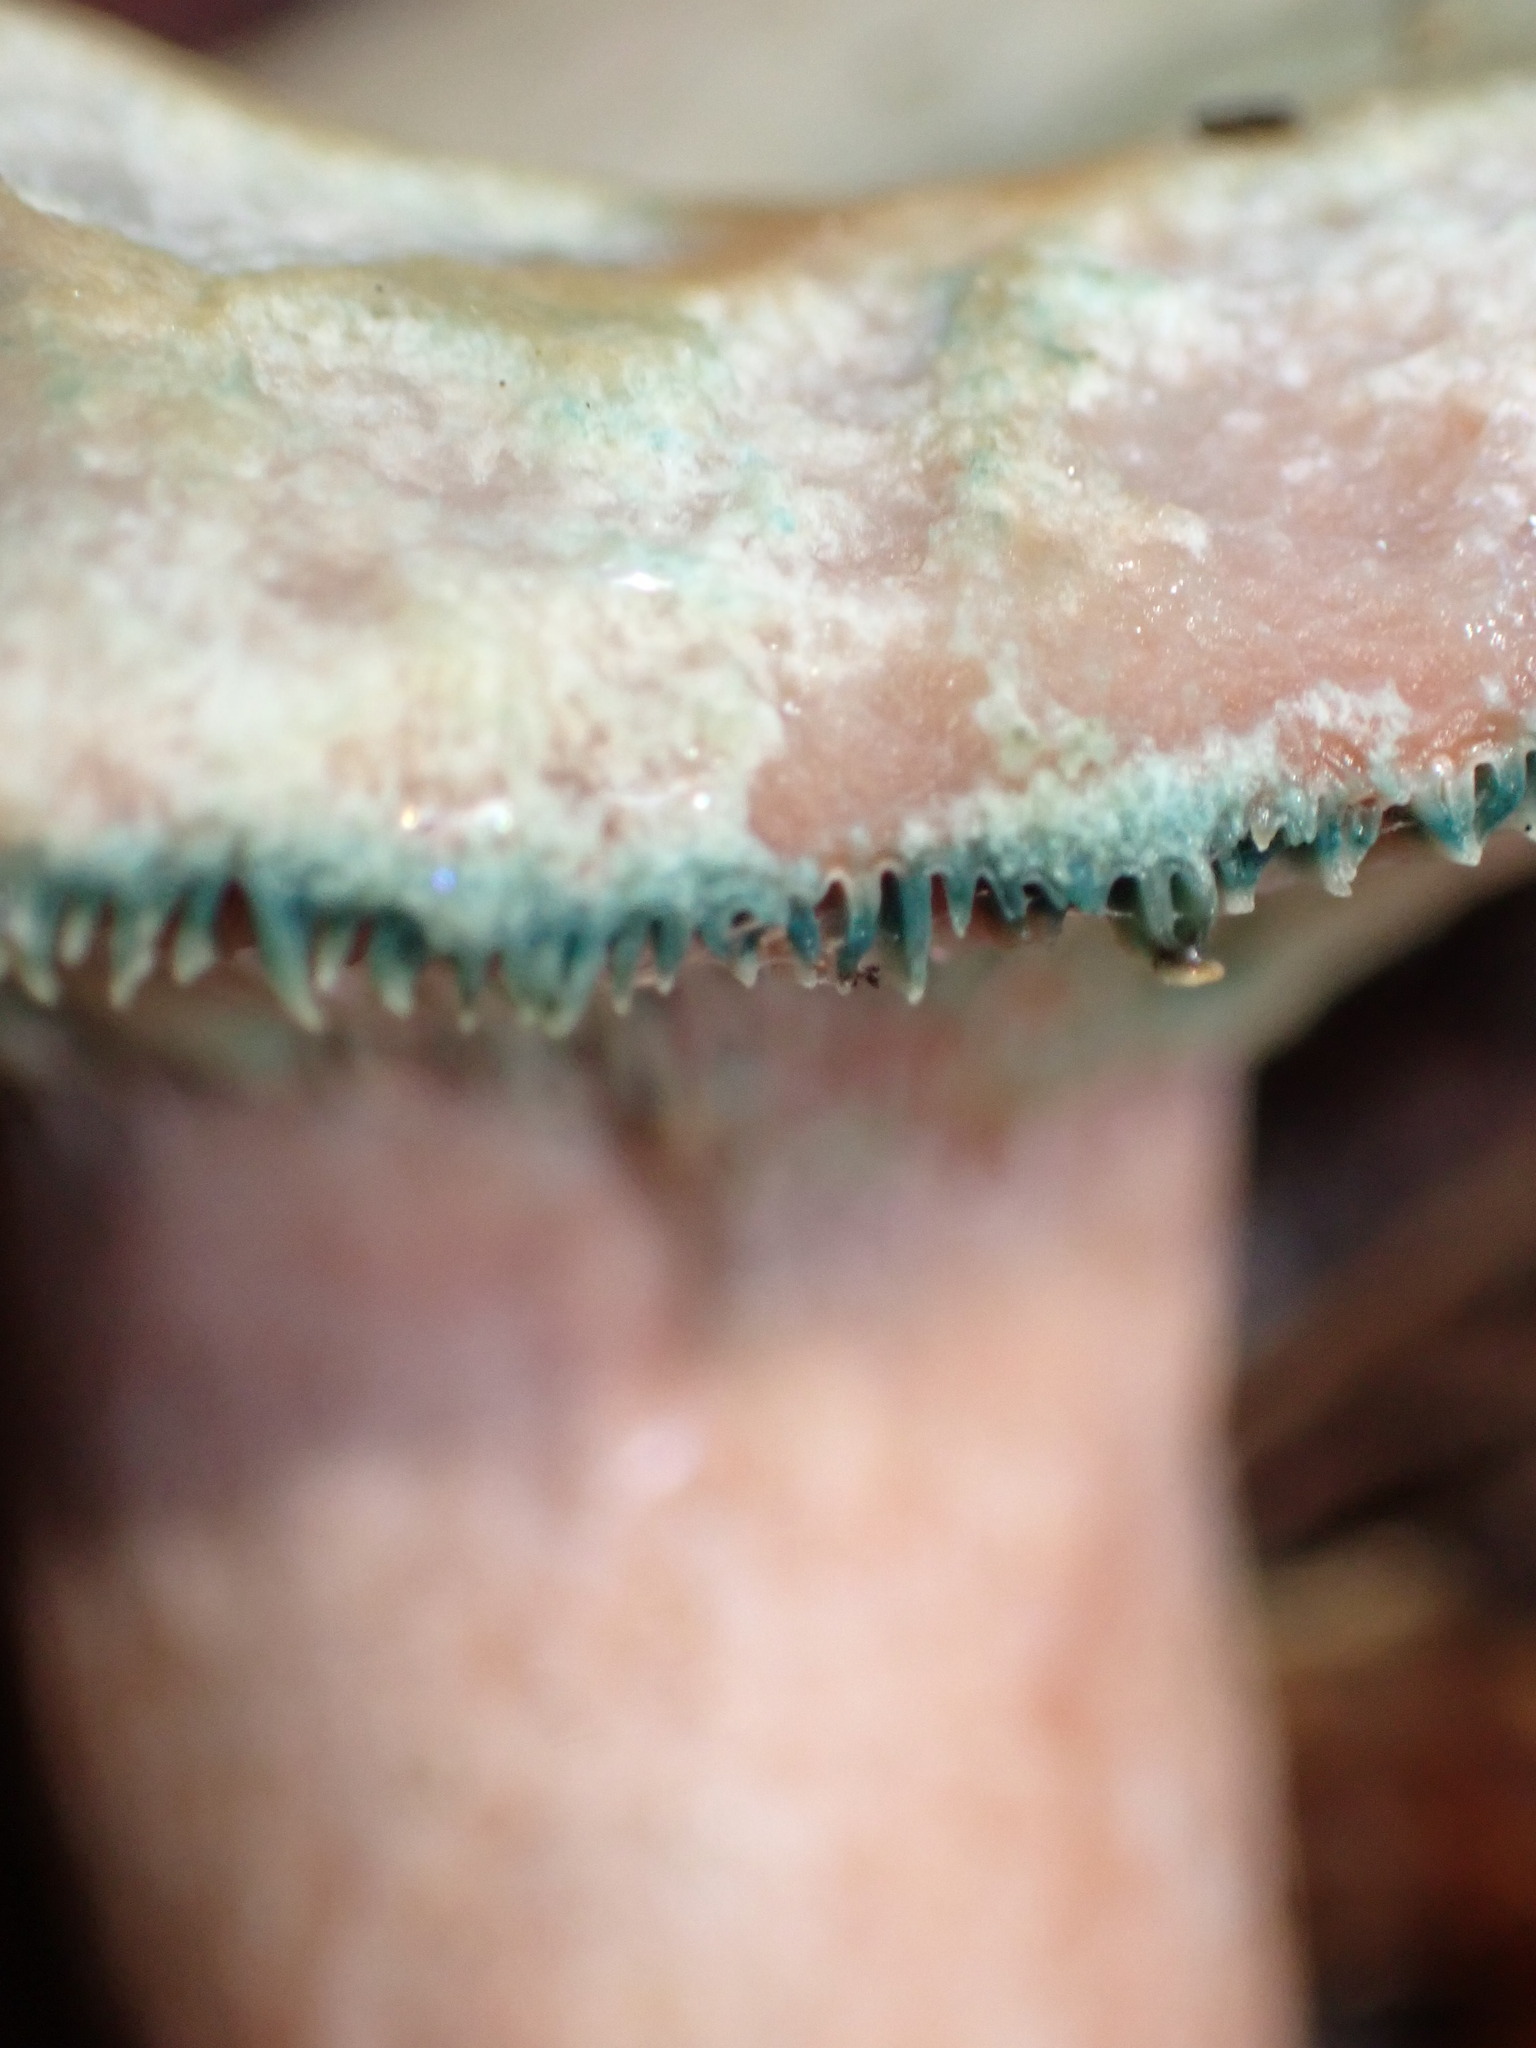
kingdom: Fungi
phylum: Basidiomycota
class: Agaricomycetes
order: Russulales
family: Russulaceae
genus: Lactarius
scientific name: Lactarius sanguifluus
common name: Bloody milkcap
